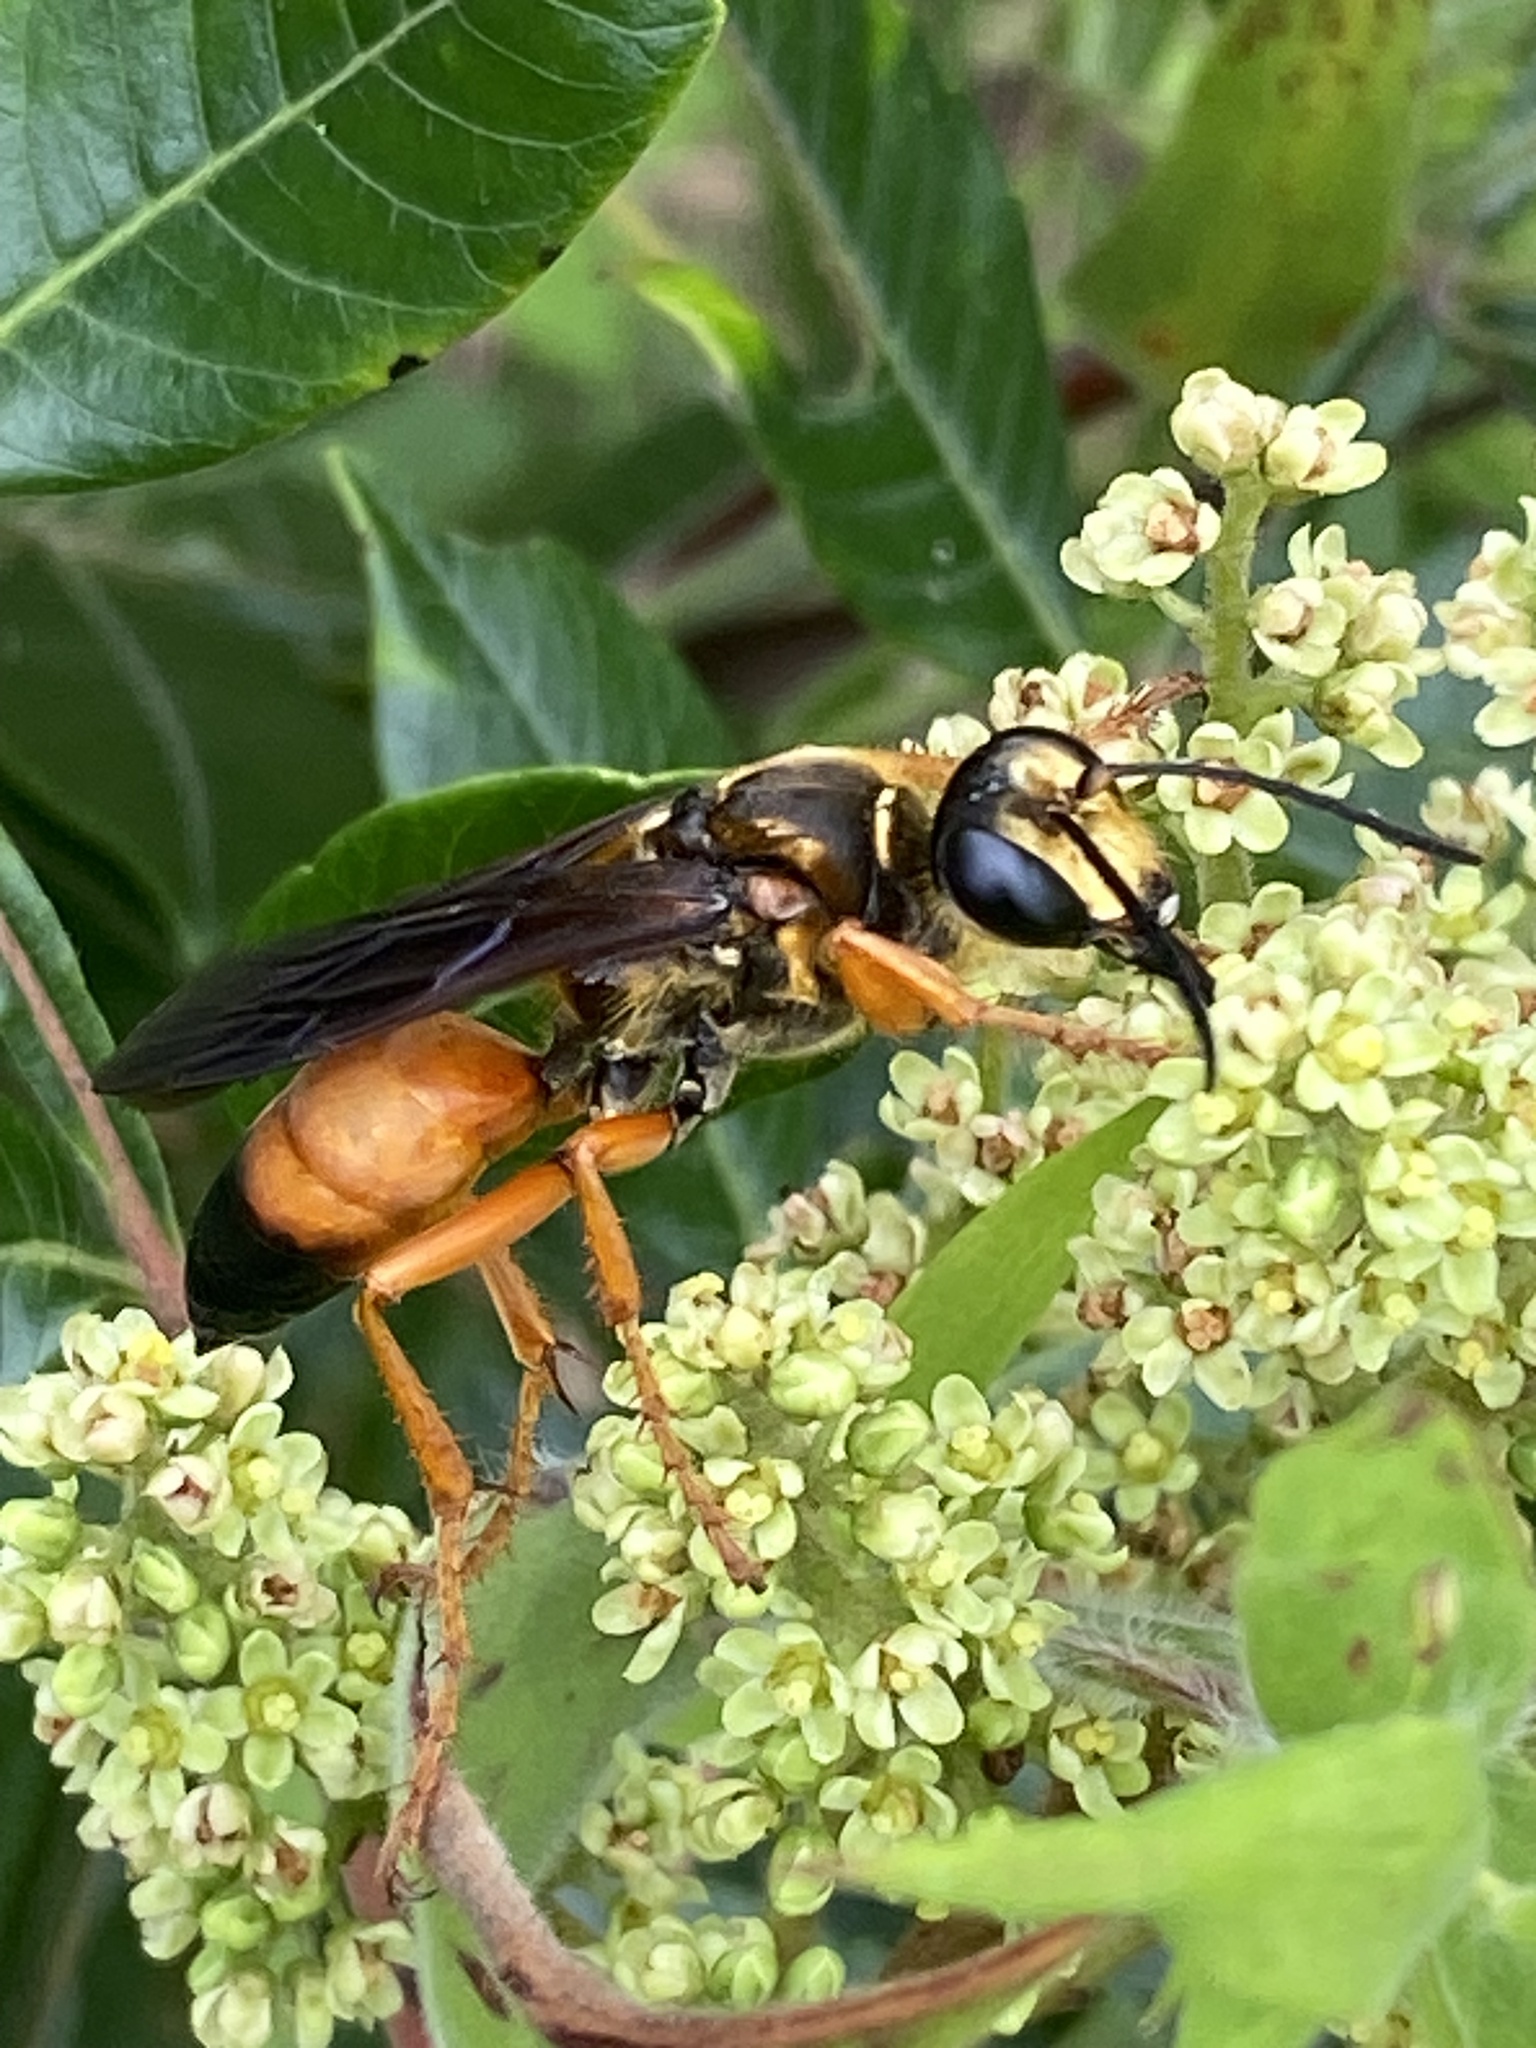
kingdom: Animalia
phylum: Arthropoda
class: Insecta
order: Hymenoptera
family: Sphecidae
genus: Sphex
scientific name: Sphex ichneumoneus
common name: Great golden digger wasp
